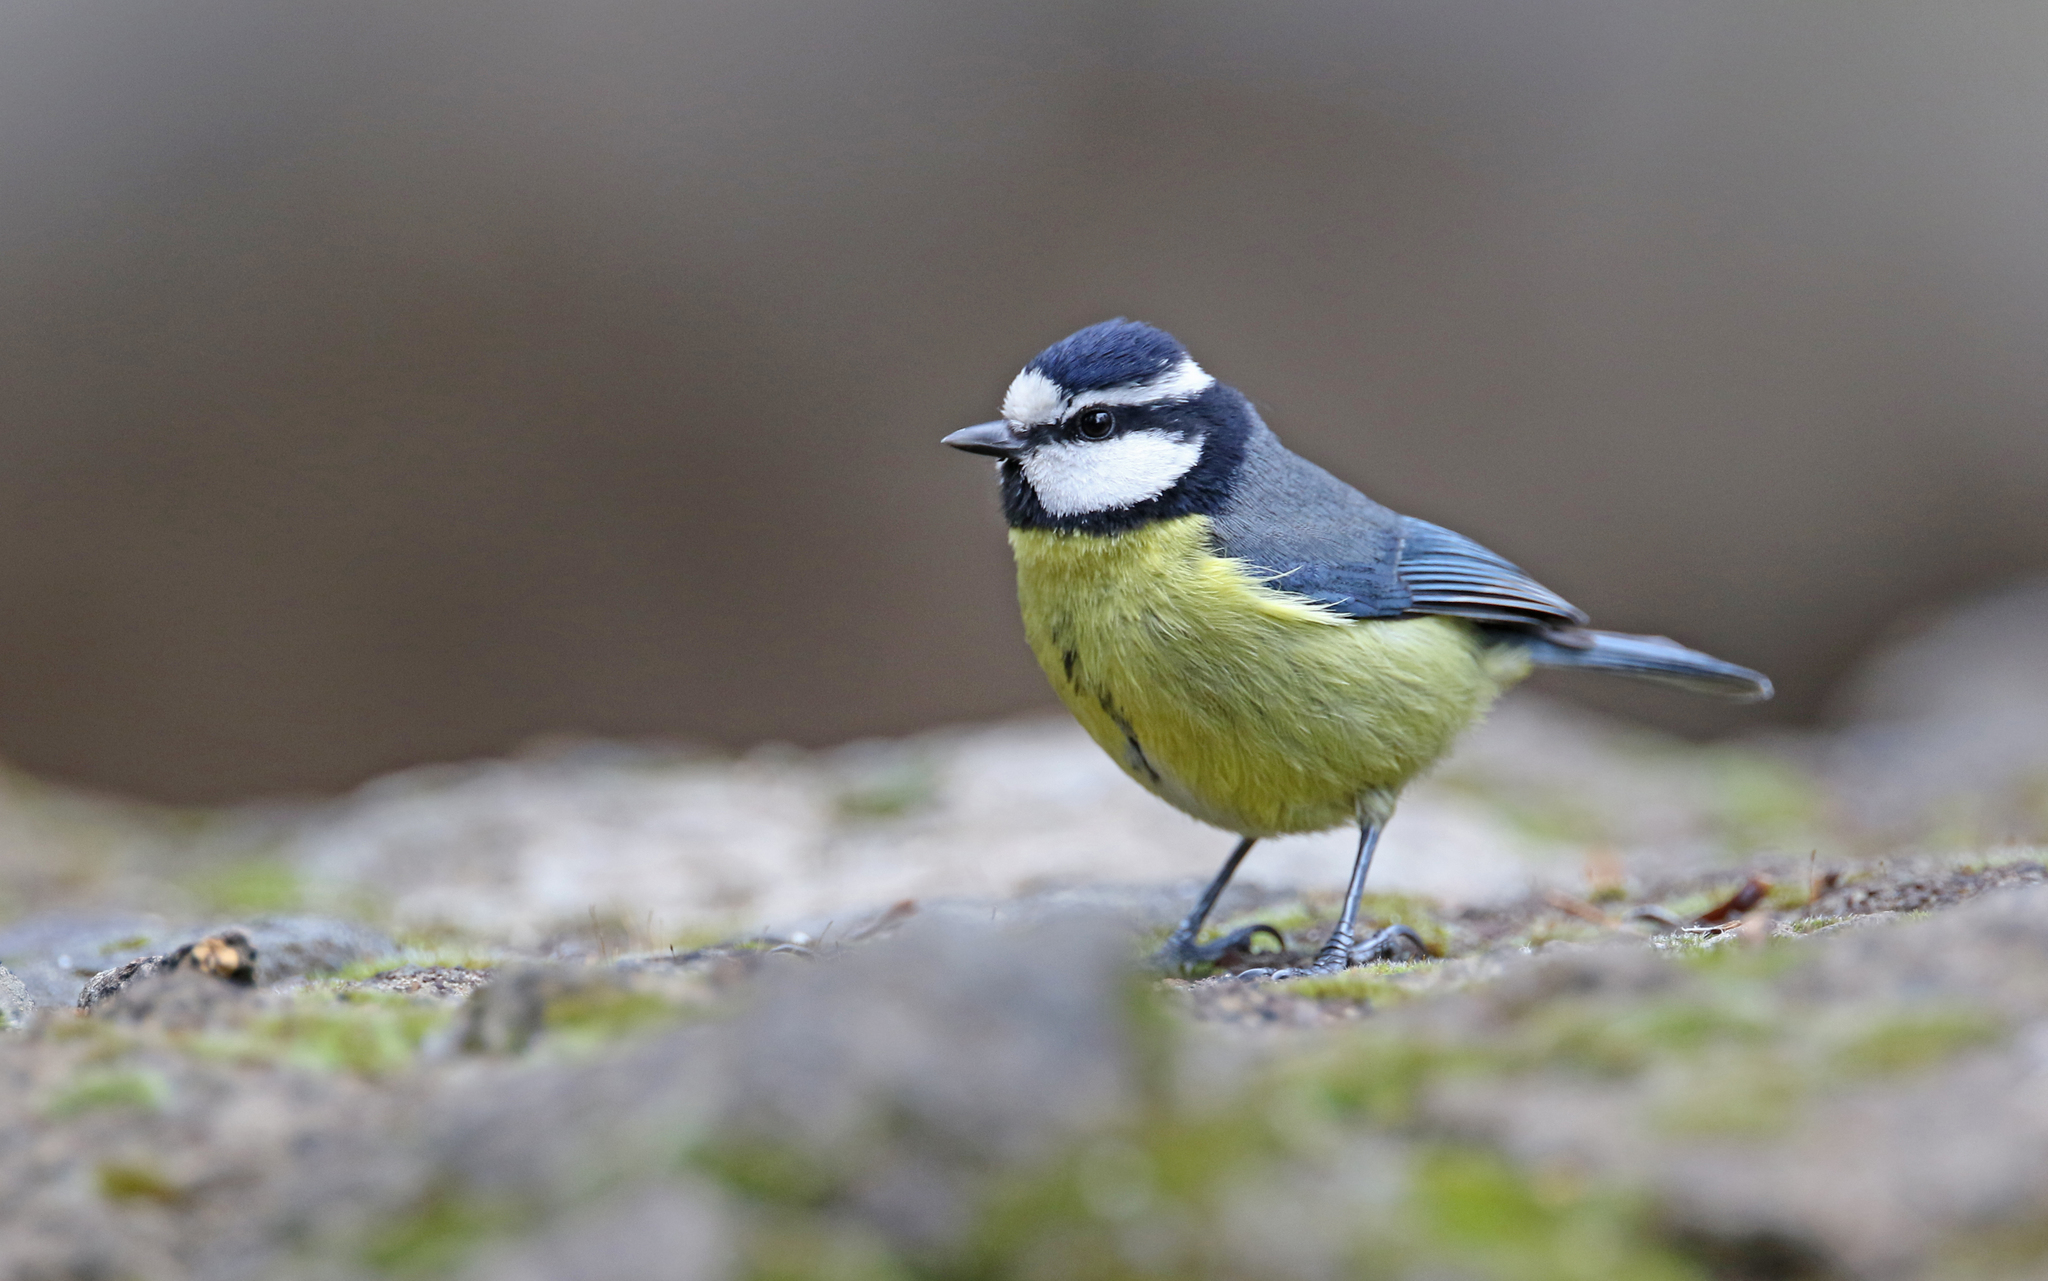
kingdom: Animalia
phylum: Chordata
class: Aves
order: Passeriformes
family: Paridae
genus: Cyanistes
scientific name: Cyanistes teneriffae
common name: African blue tit
